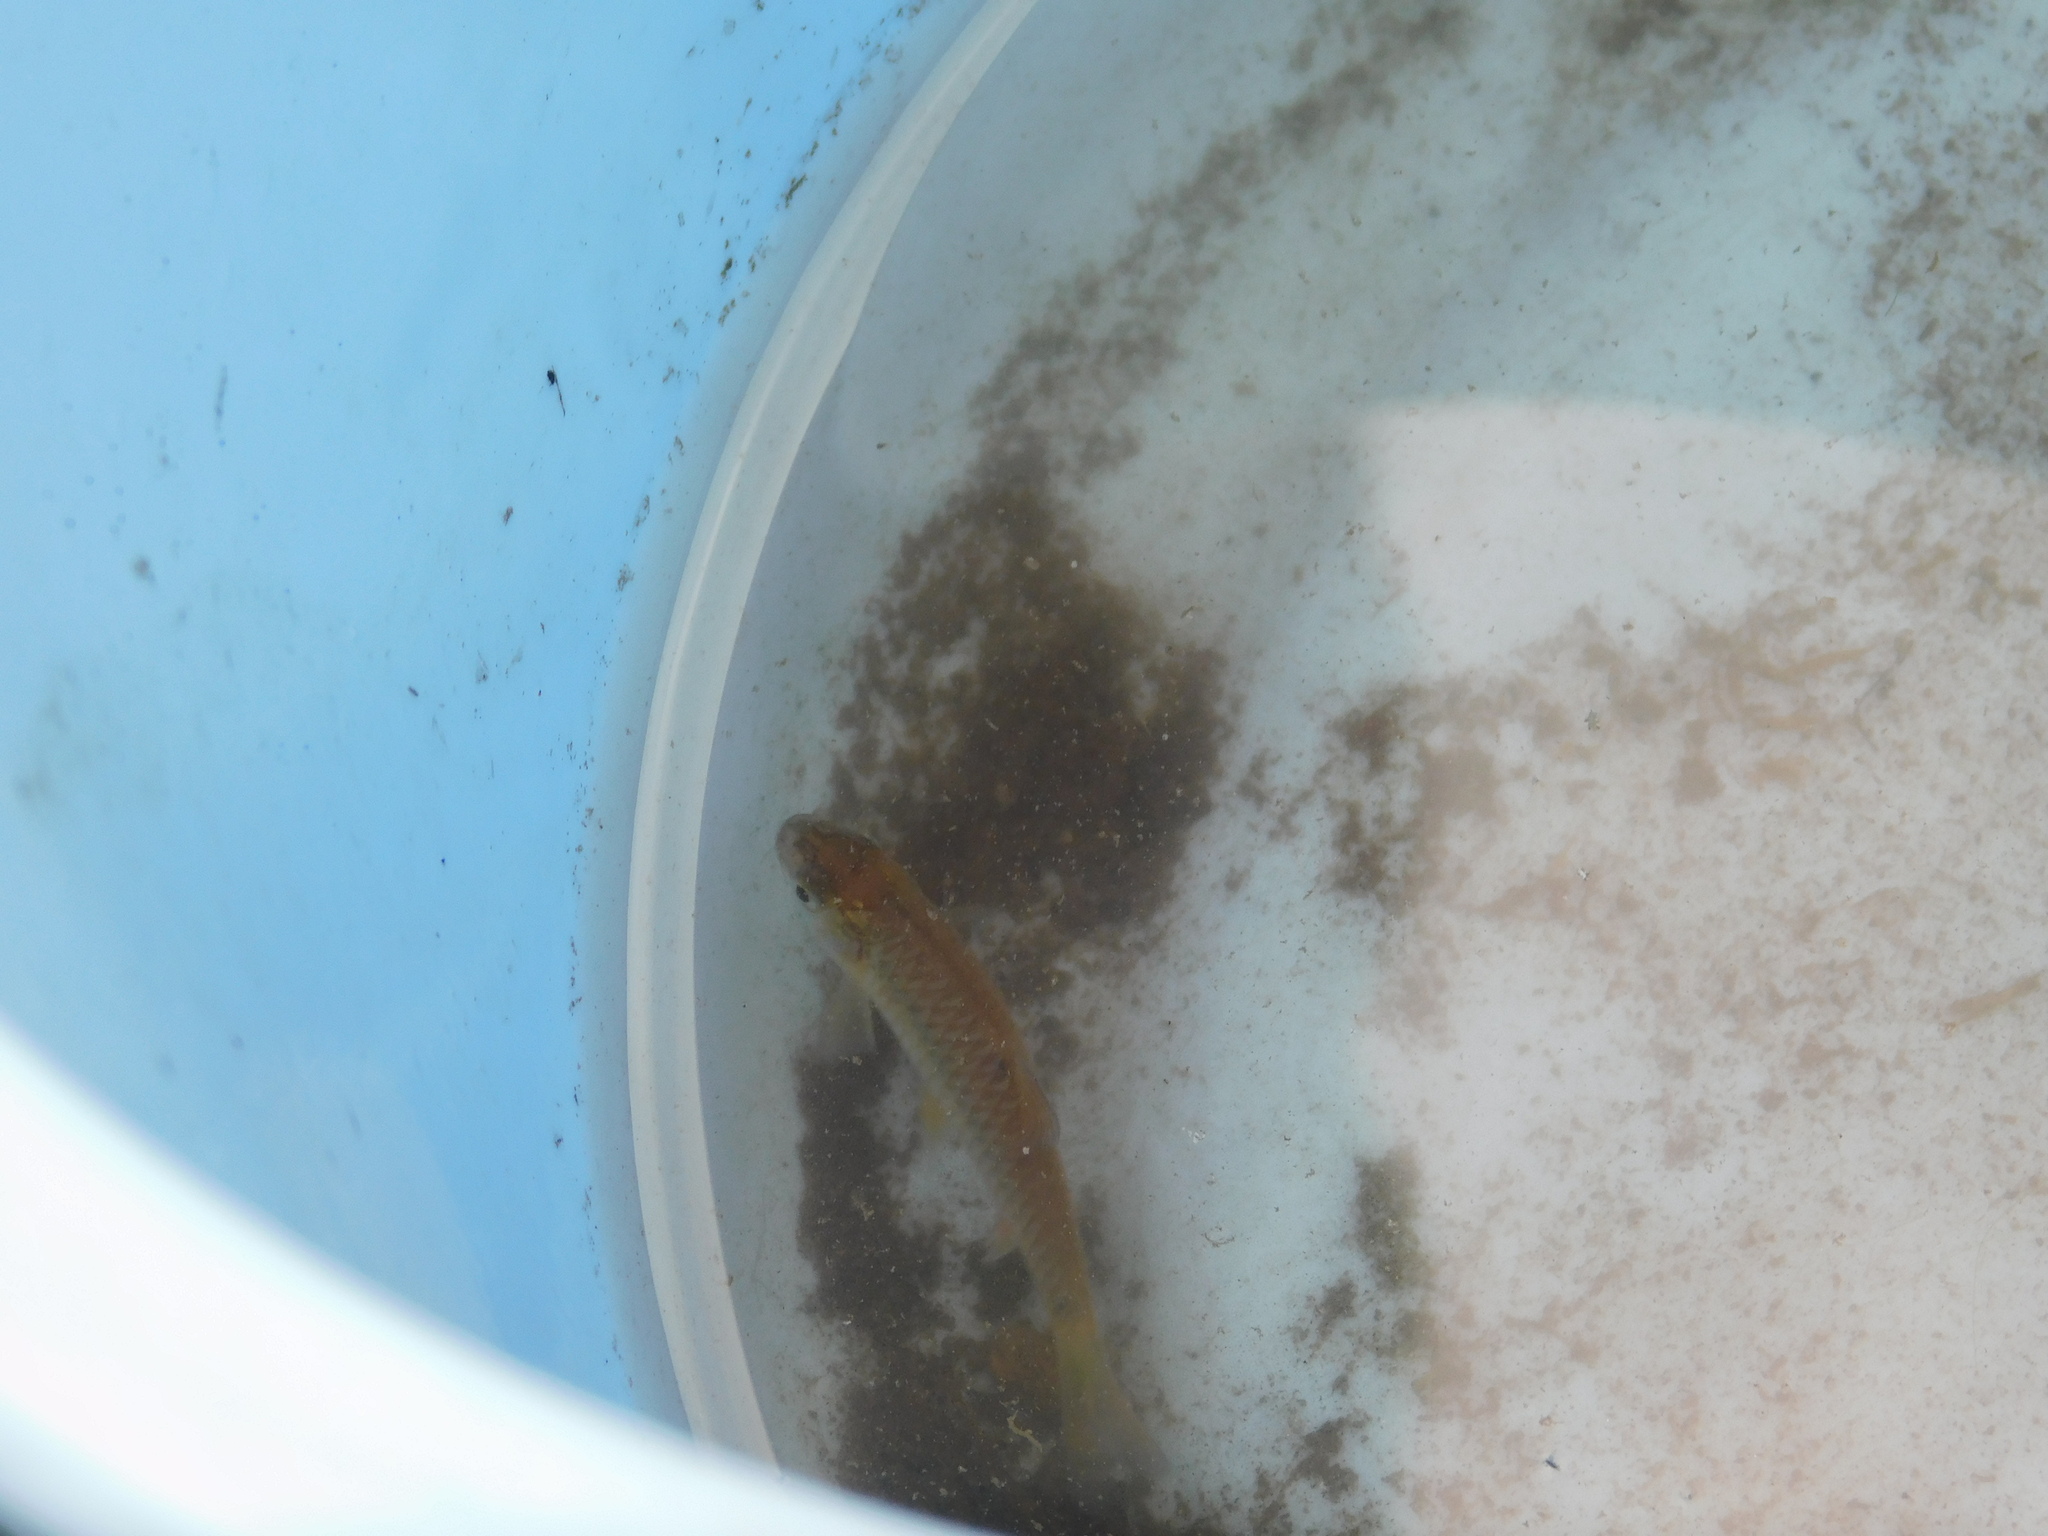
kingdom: Animalia
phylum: Chordata
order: Cypriniformes
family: Cyprinidae
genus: Barbodes
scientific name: Barbodes binotatus
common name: Spotted barb
